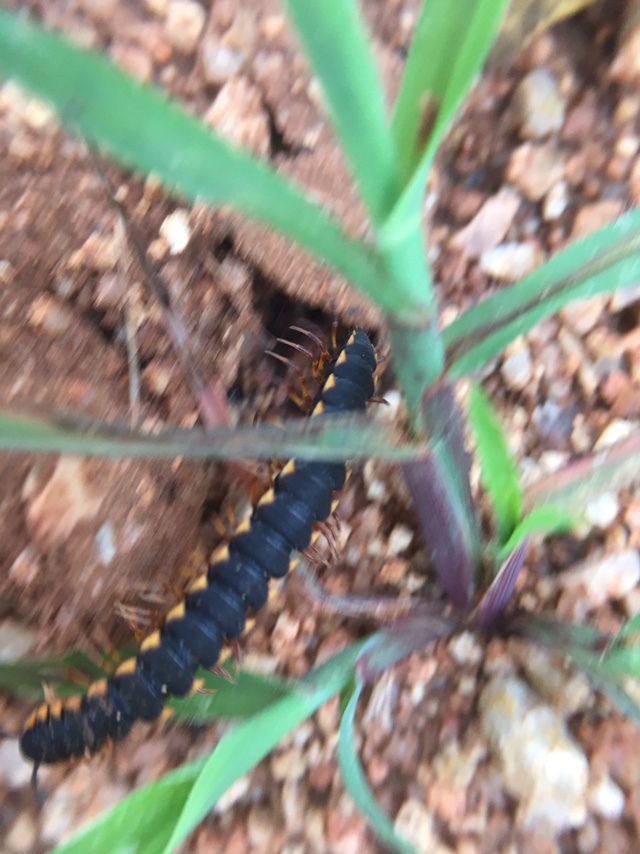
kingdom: Animalia
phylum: Arthropoda
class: Diplopoda
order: Polydesmida
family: Paradoxosomatidae
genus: Streptogonopus
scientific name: Streptogonopus phipsoni
